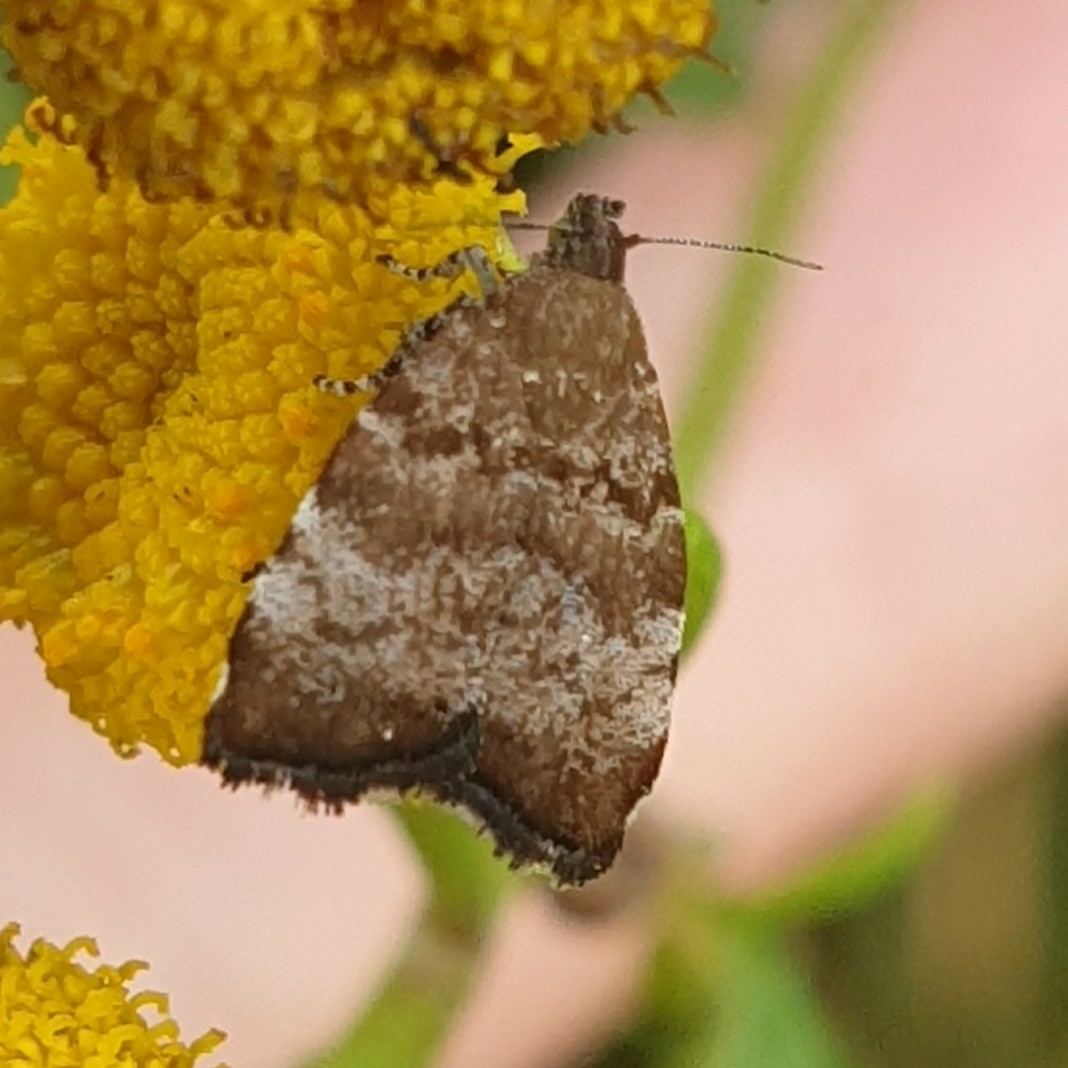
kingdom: Animalia
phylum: Arthropoda
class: Insecta
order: Lepidoptera
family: Choreutidae
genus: Choreutis
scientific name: Choreutis pariana
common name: Apple leaf skeletoniser
